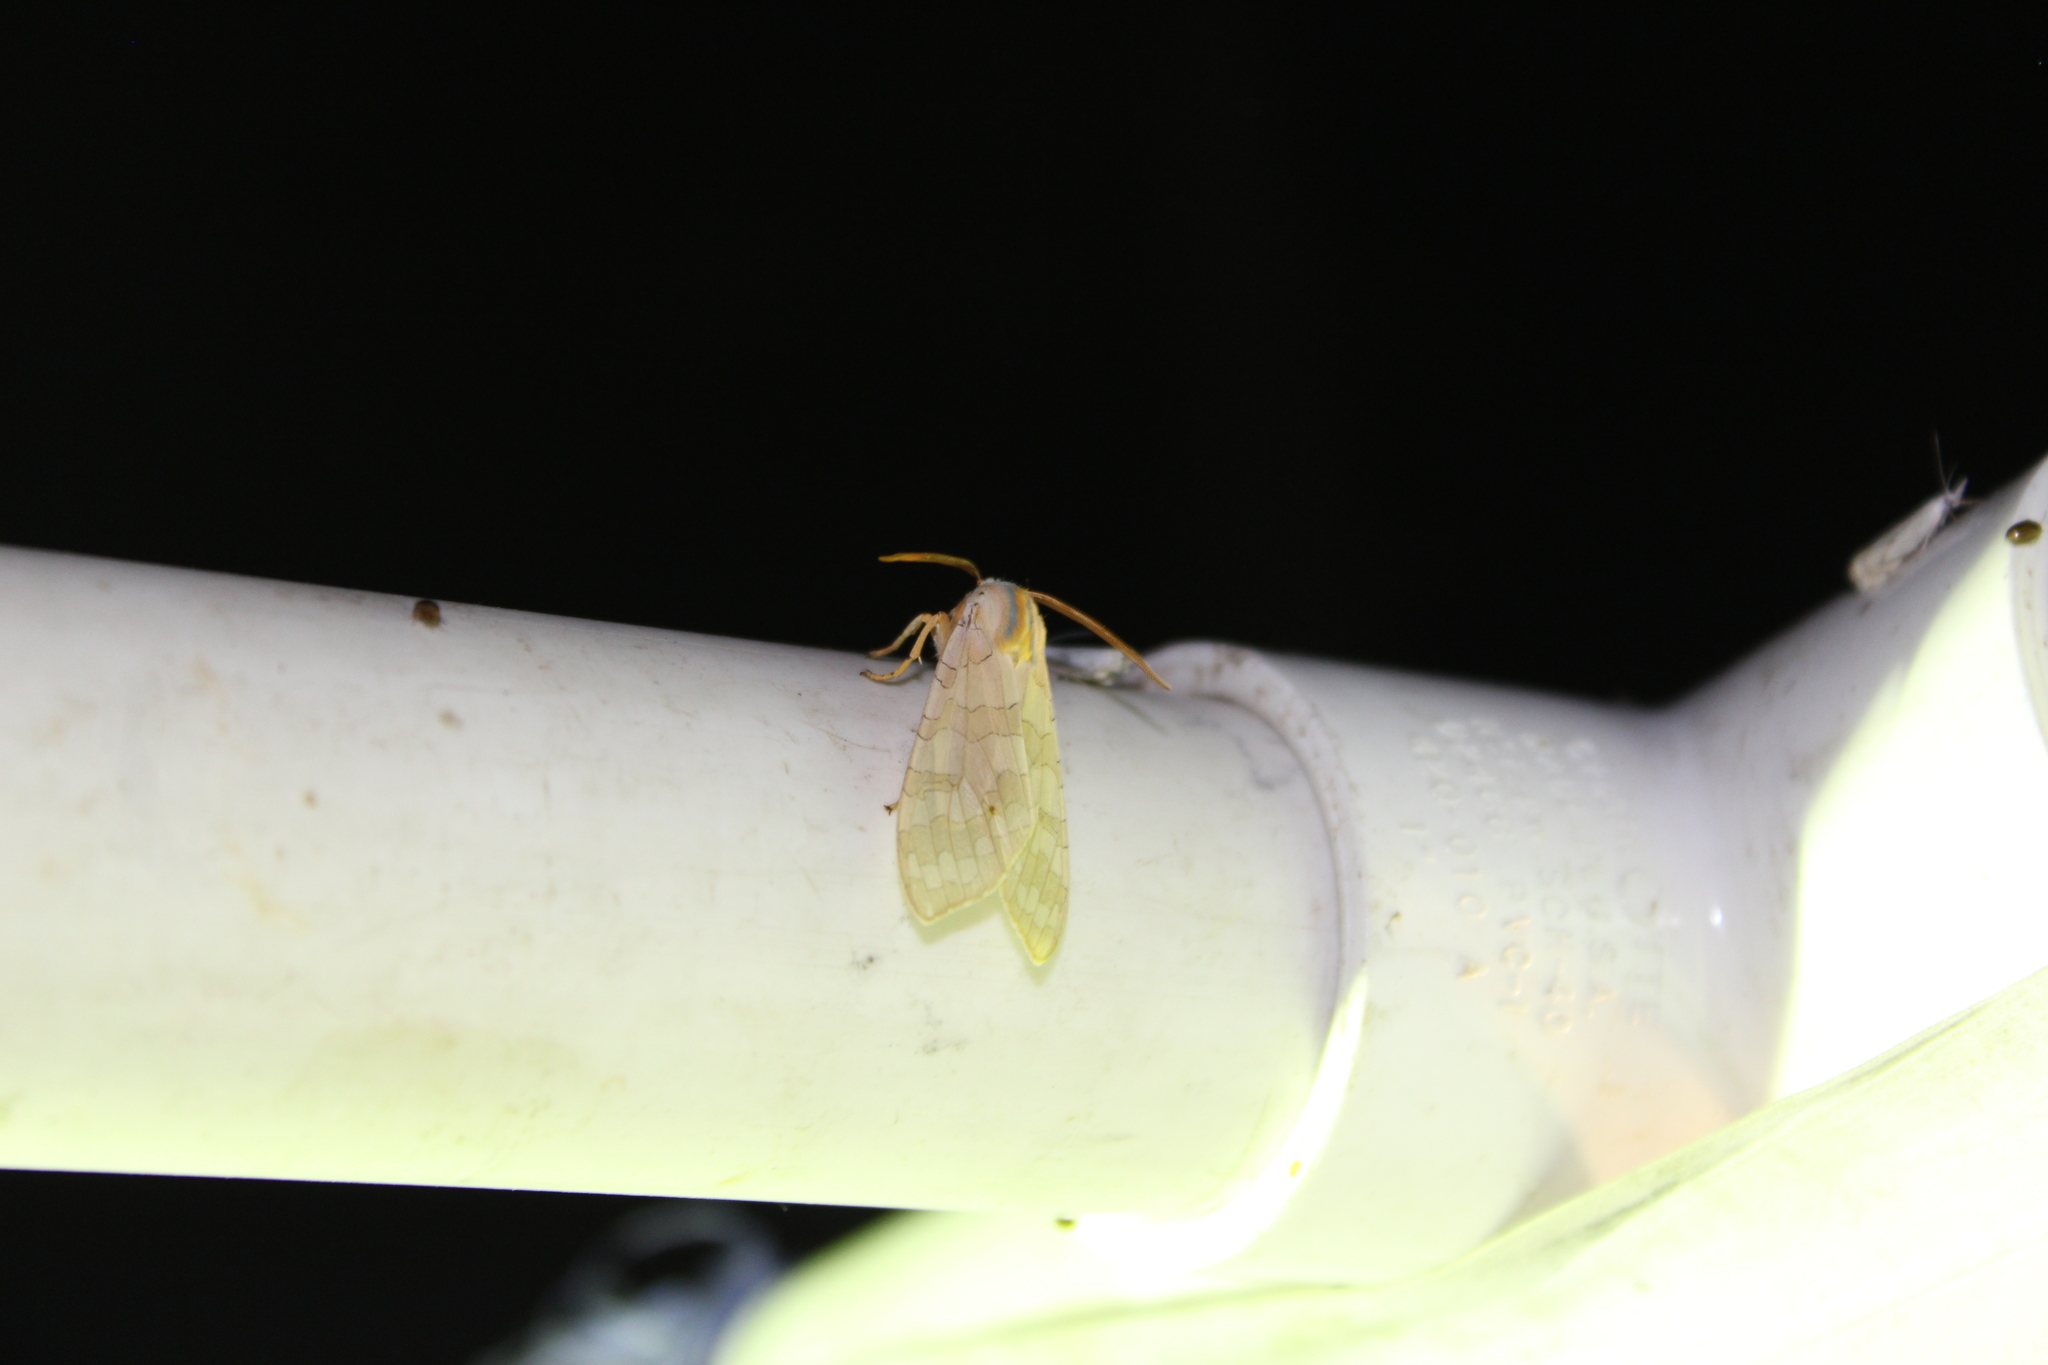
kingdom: Animalia
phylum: Arthropoda
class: Insecta
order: Lepidoptera
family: Erebidae
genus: Halysidota
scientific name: Halysidota
